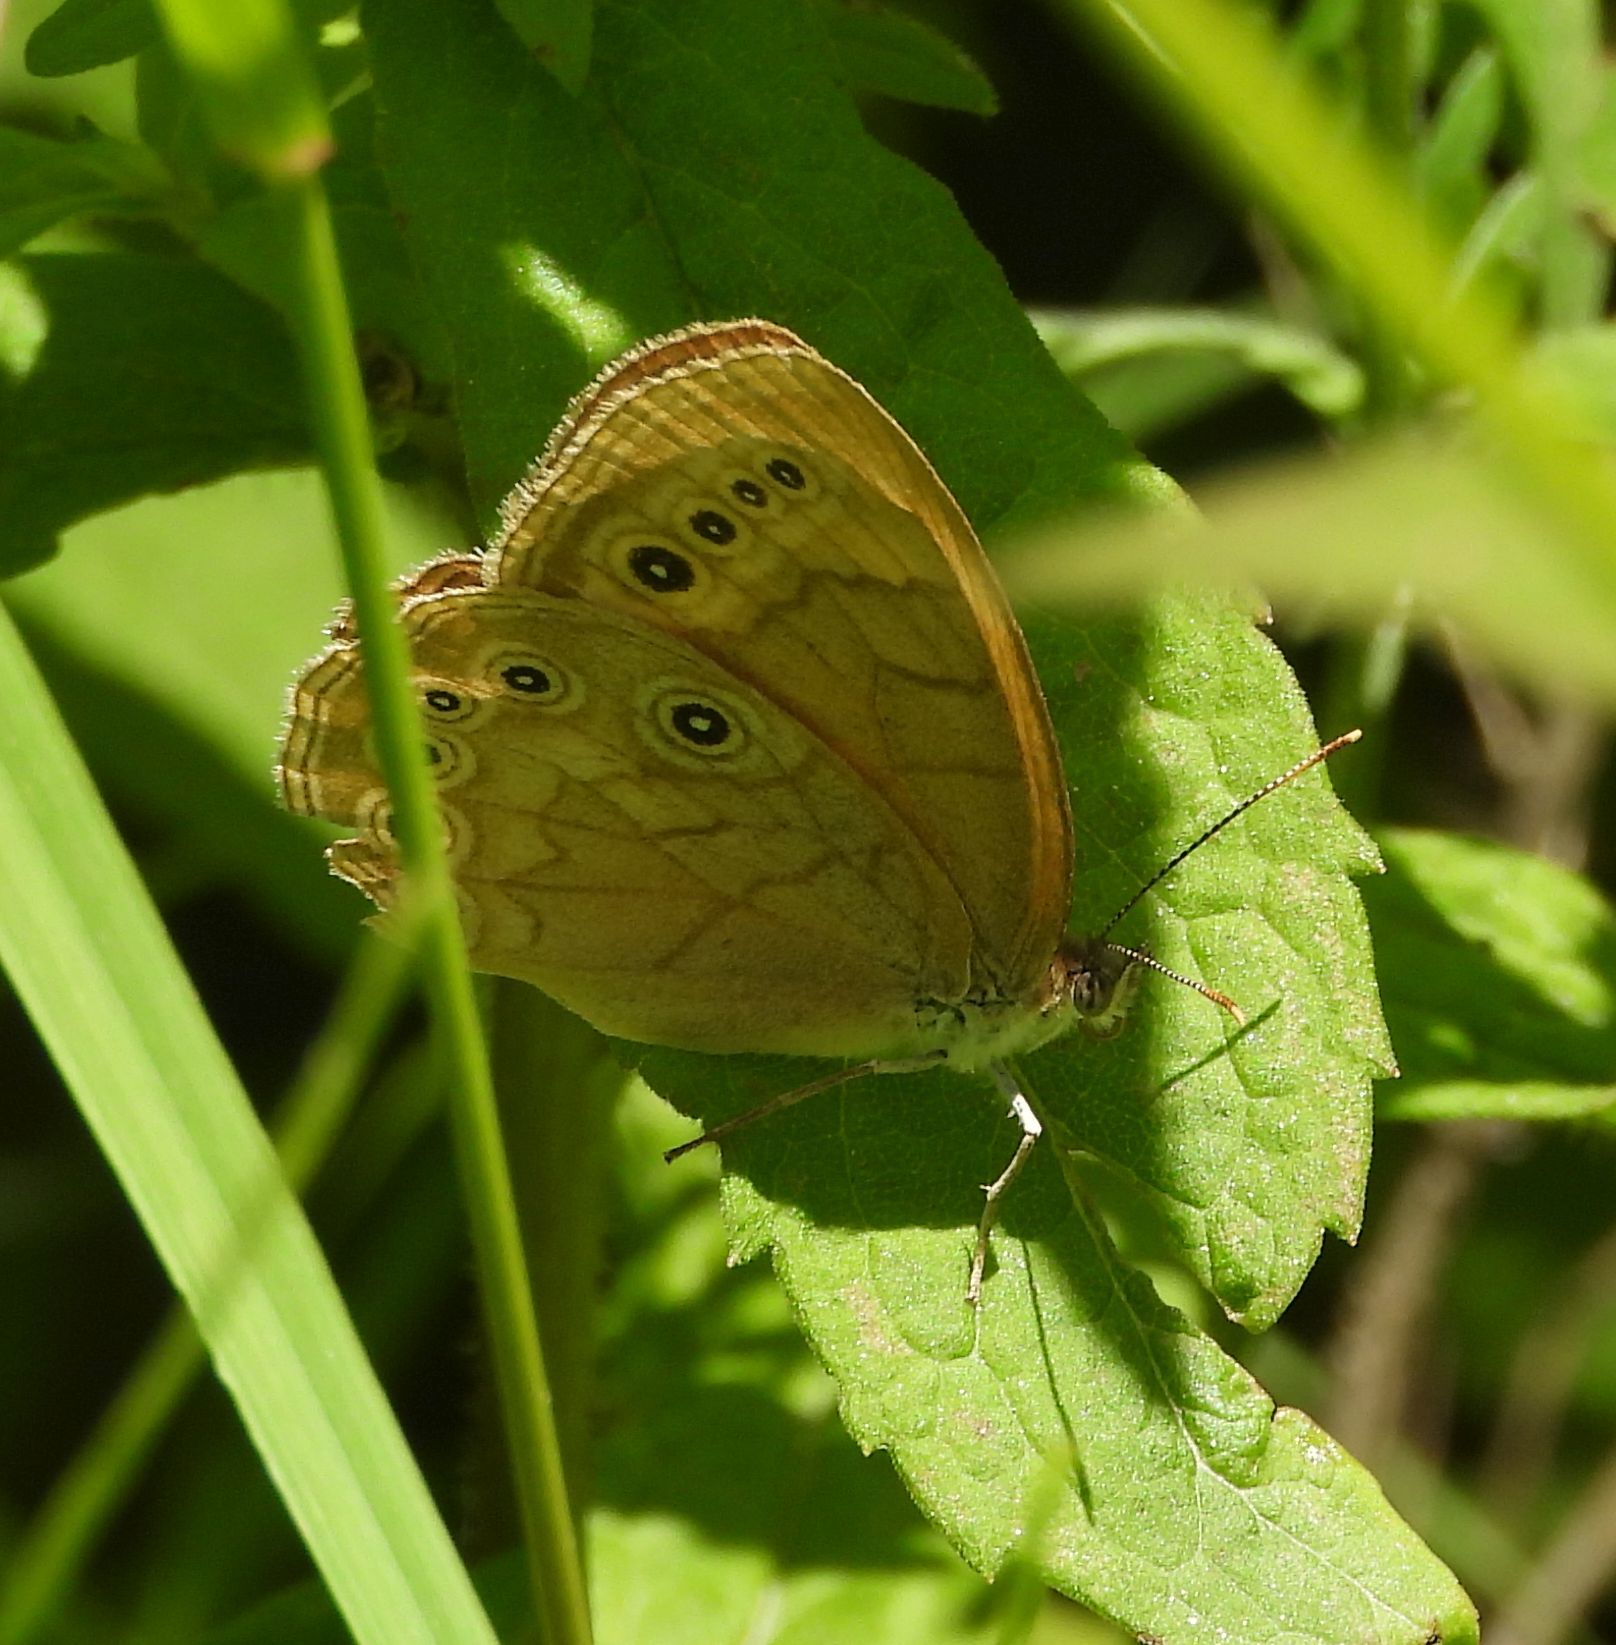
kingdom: Animalia
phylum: Arthropoda
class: Insecta
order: Lepidoptera
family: Nymphalidae
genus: Lethe
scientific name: Lethe eurydice
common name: Eyed brown
